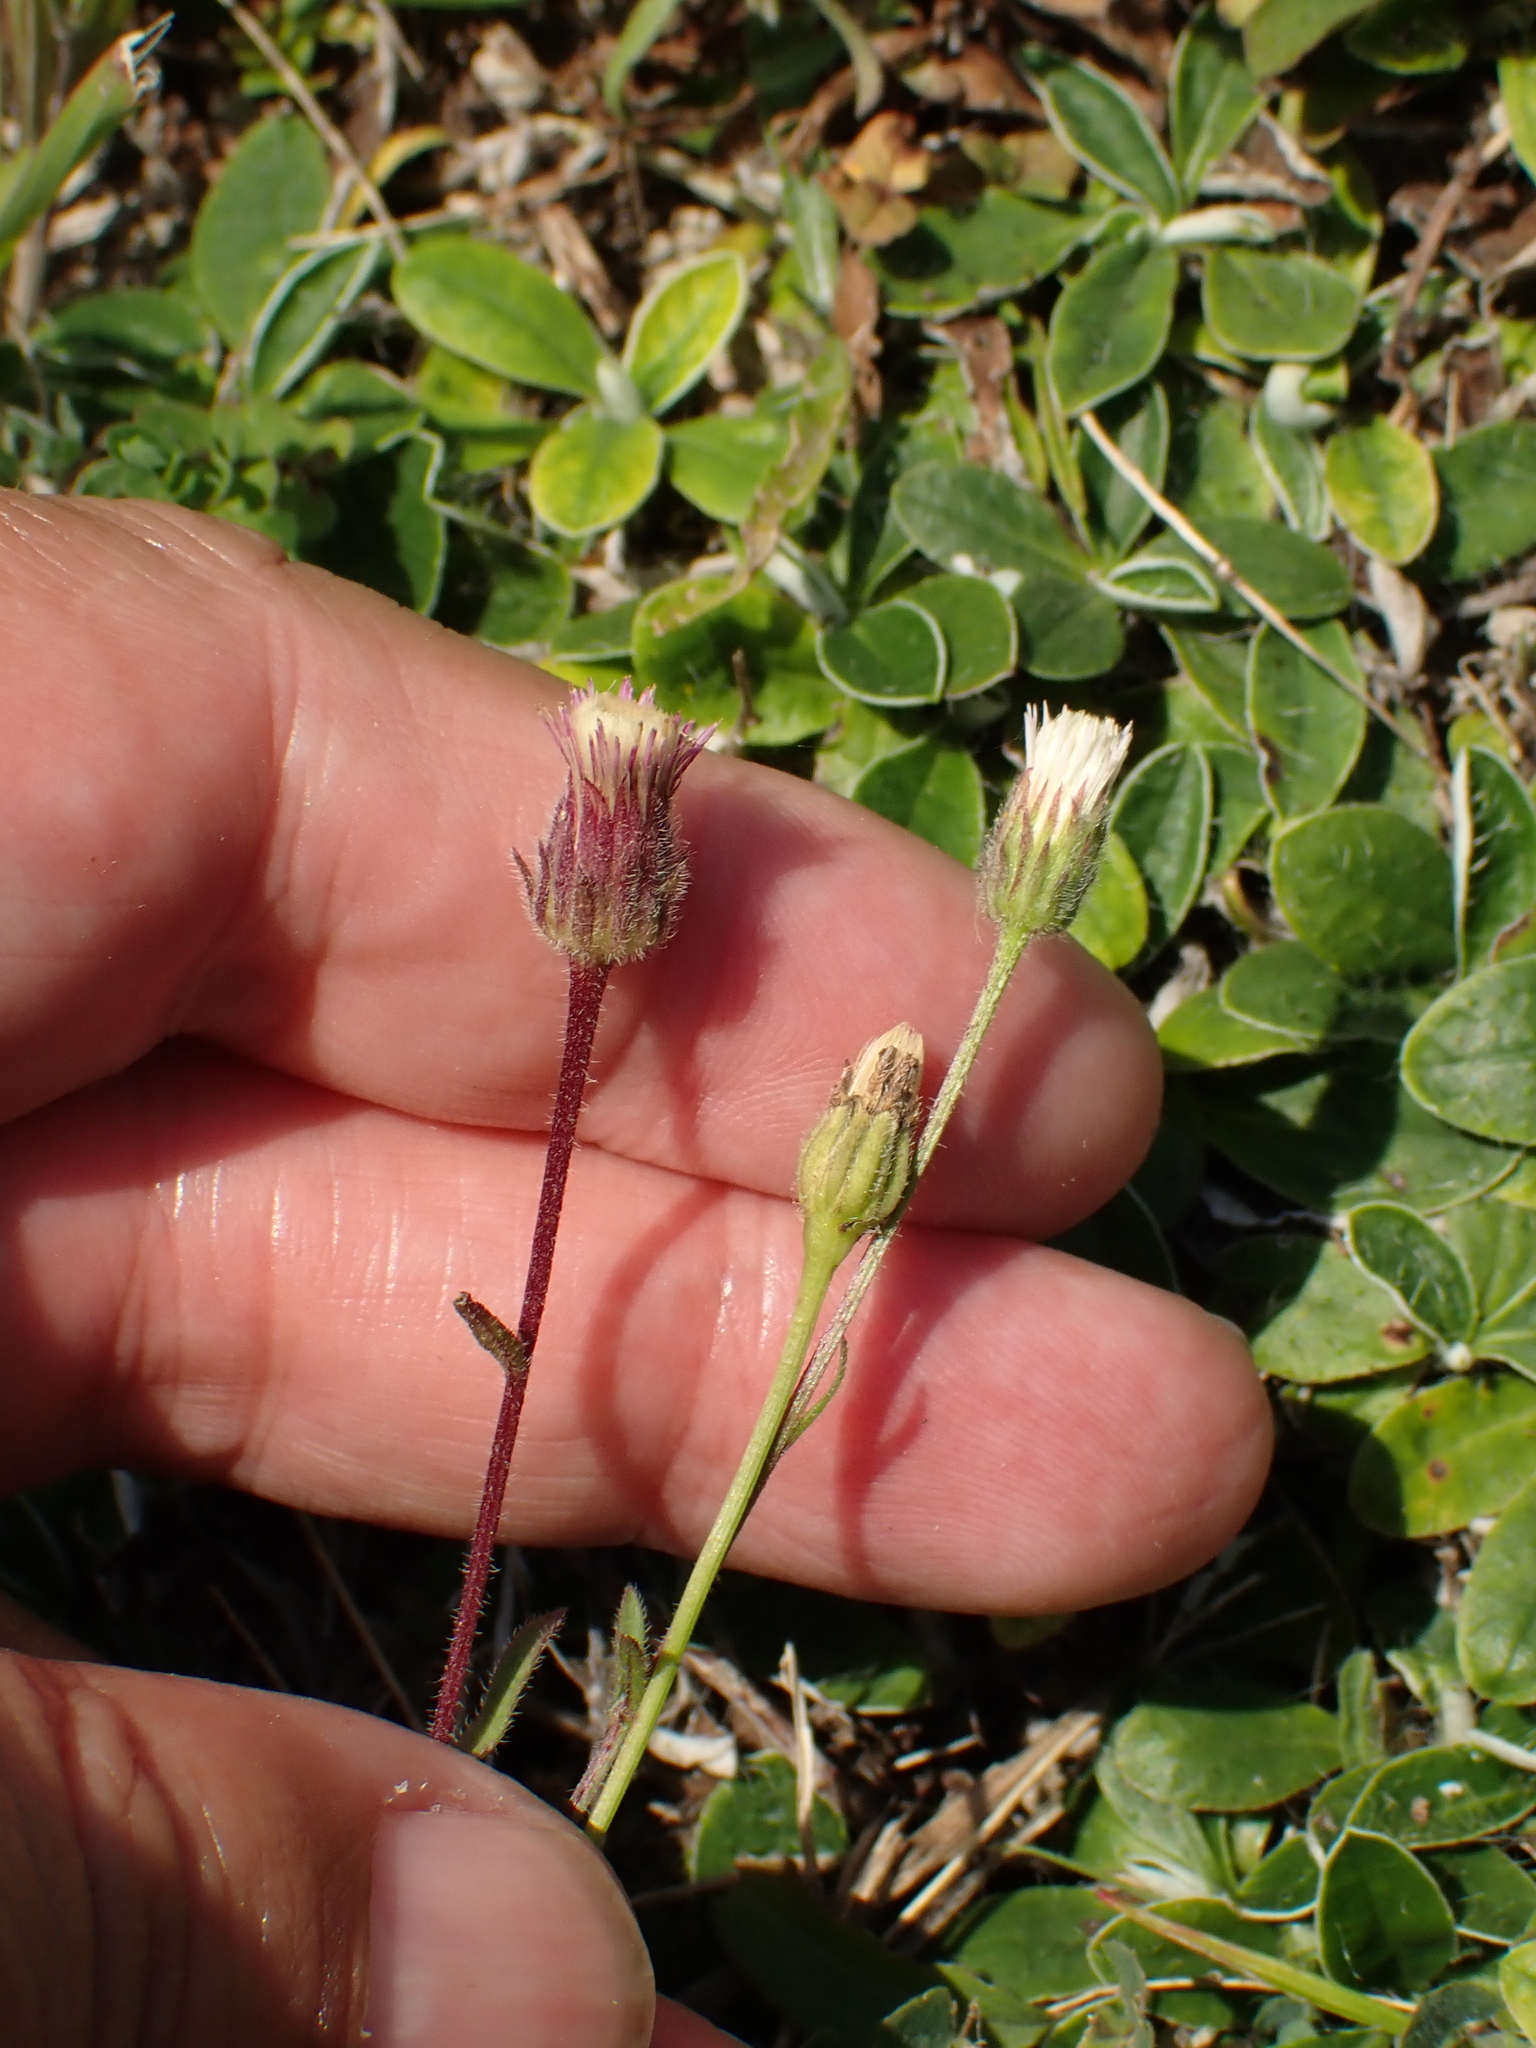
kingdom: Plantae
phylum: Tracheophyta
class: Magnoliopsida
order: Asterales
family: Asteraceae
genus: Erigeron
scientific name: Erigeron acris
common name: Blue fleabane
